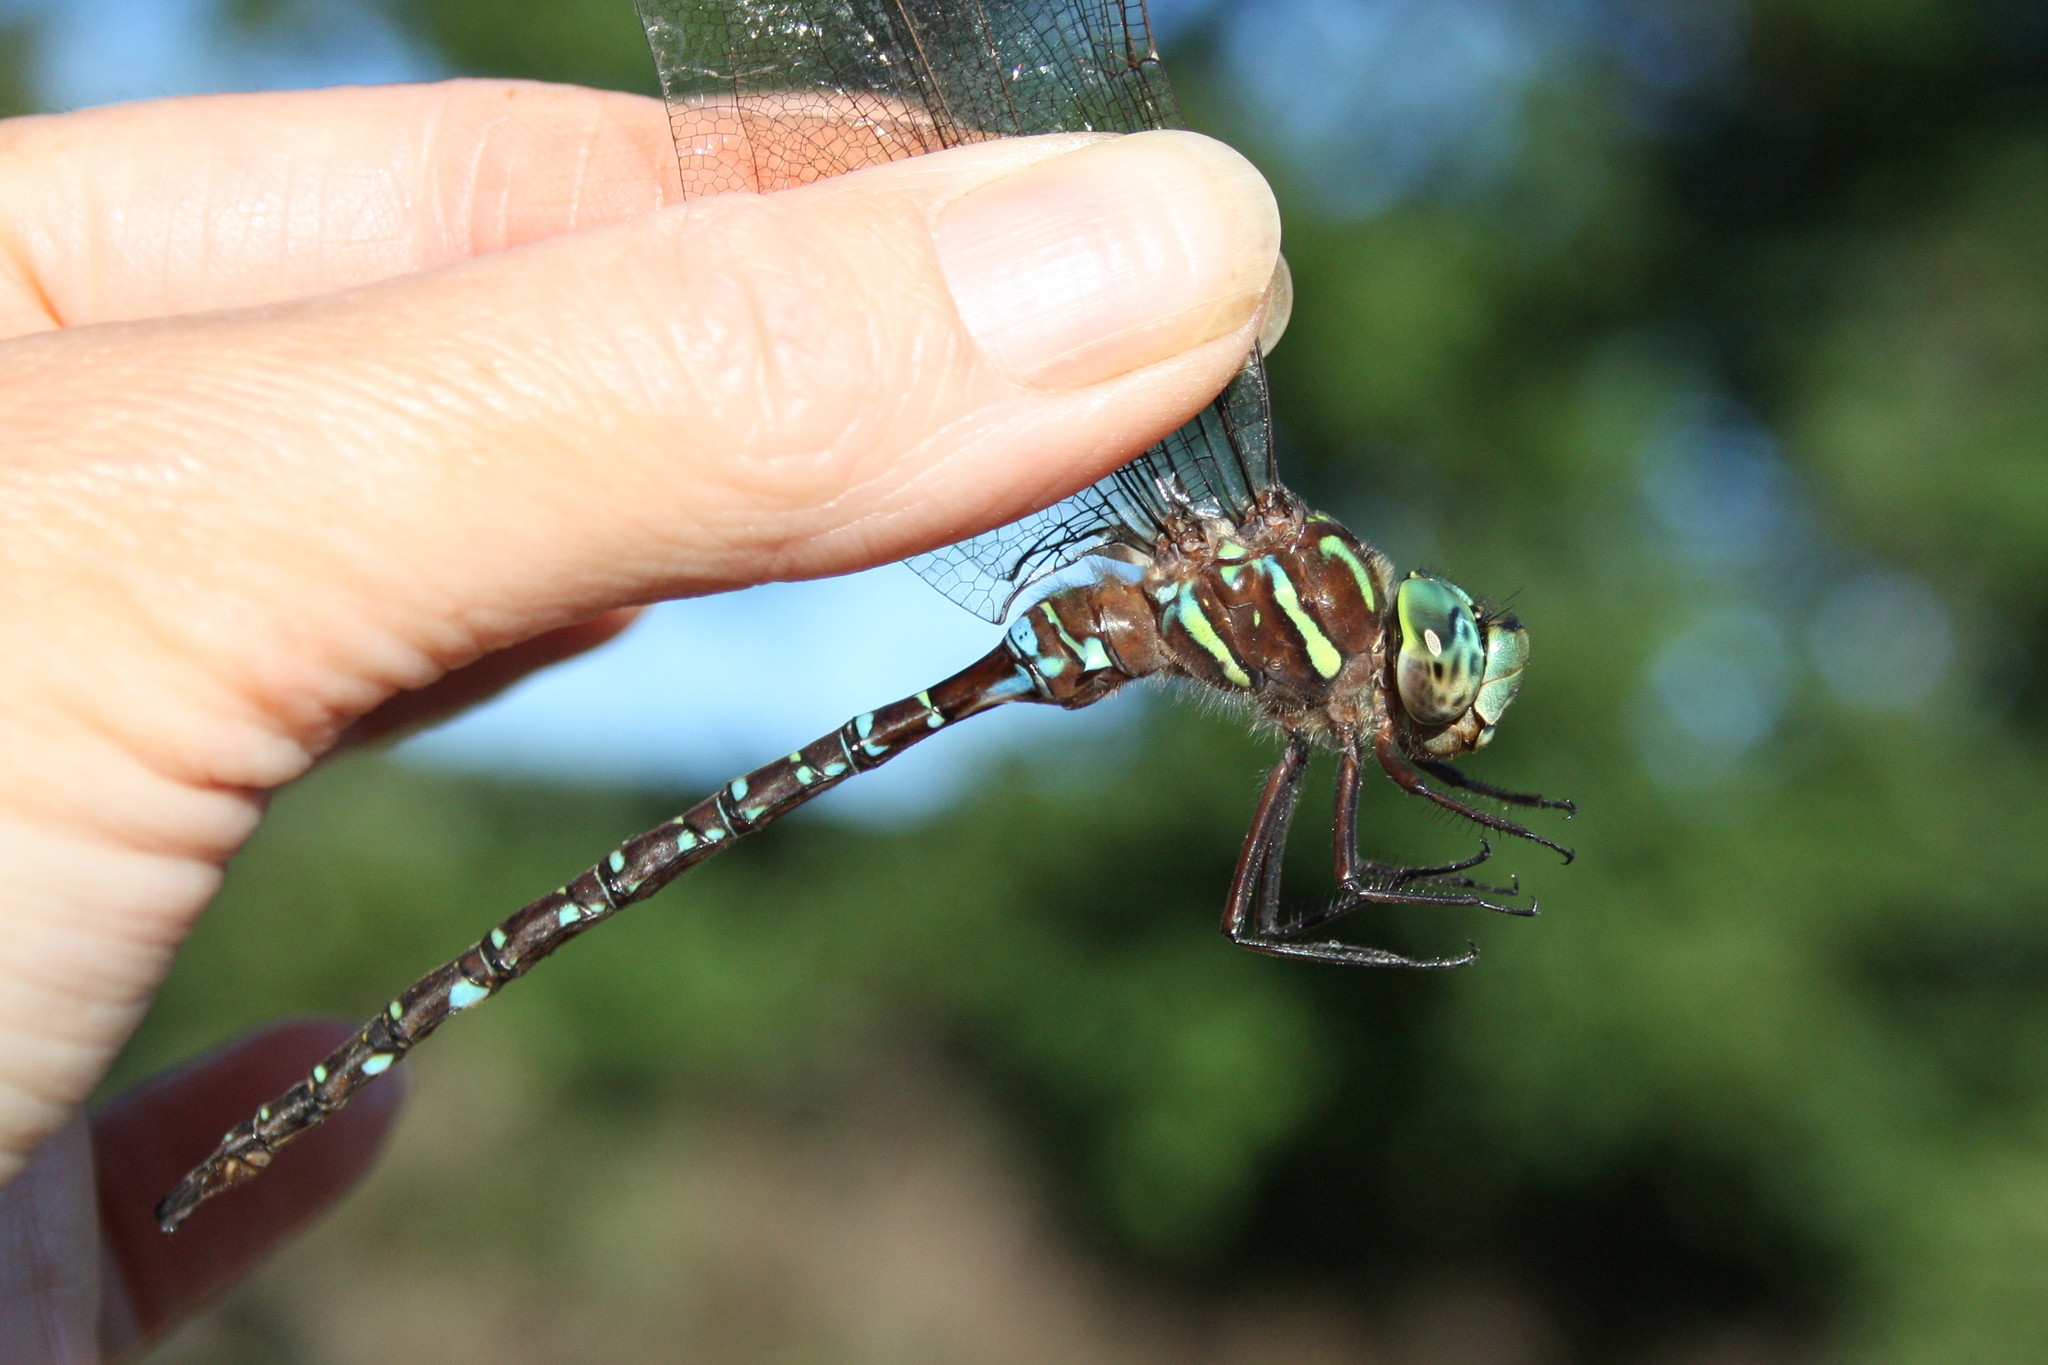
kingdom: Animalia
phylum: Arthropoda
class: Insecta
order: Odonata
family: Aeshnidae
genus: Aeshna
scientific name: Aeshna umbrosa
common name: Shadow darner
